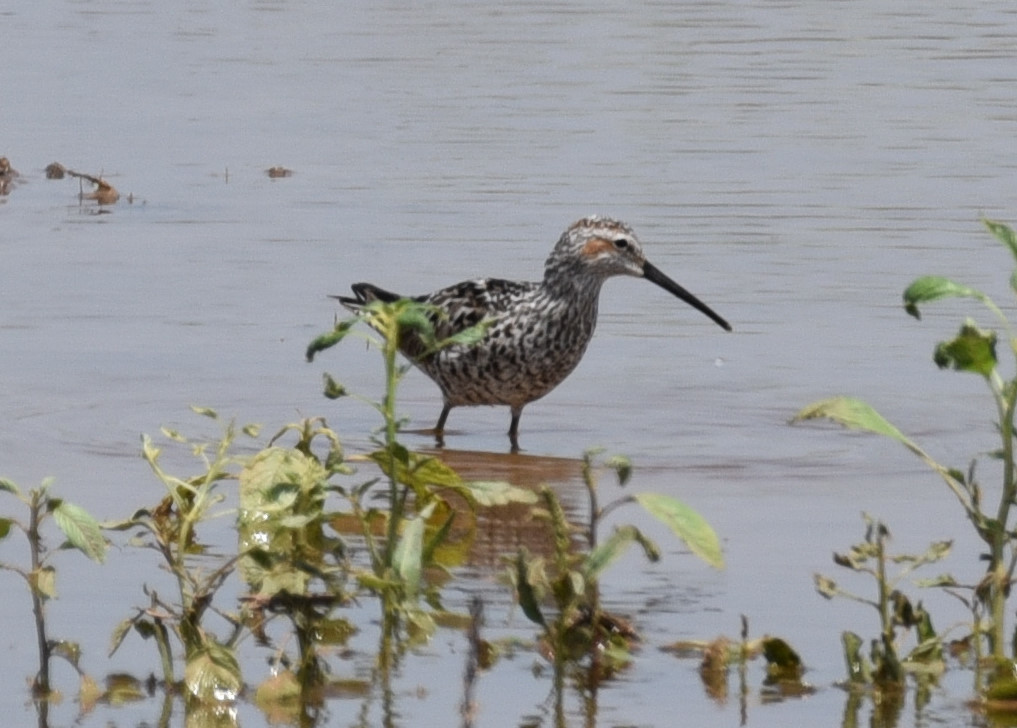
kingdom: Animalia
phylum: Chordata
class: Aves
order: Charadriiformes
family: Scolopacidae
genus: Calidris
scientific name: Calidris himantopus
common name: Stilt sandpiper
